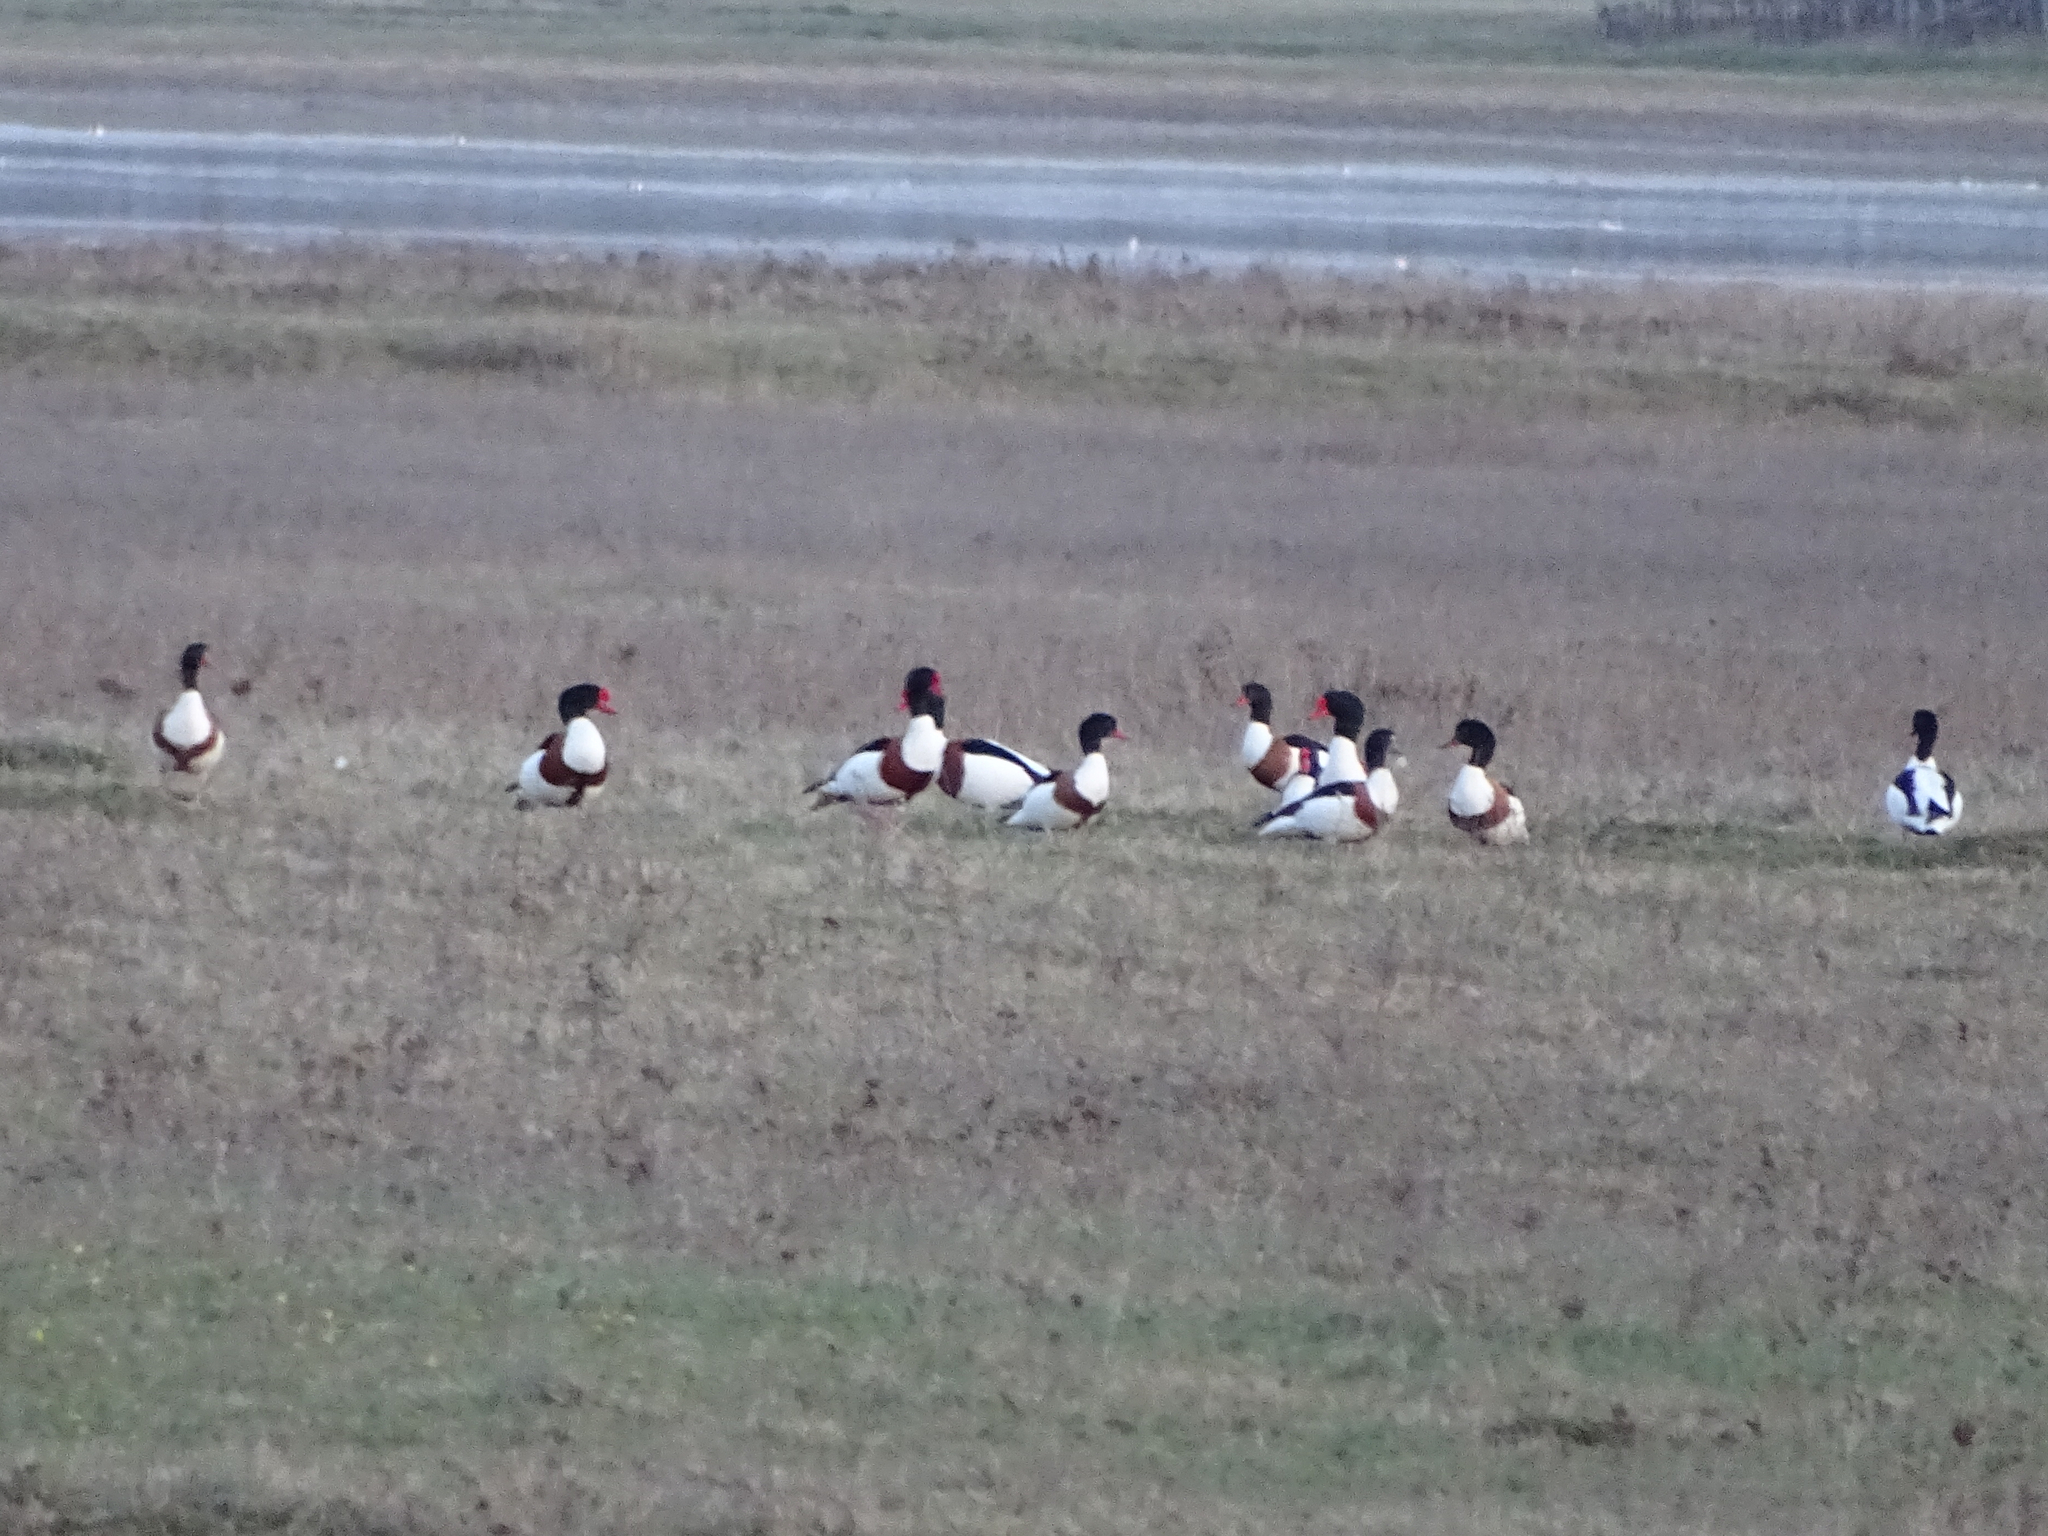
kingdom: Animalia
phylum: Chordata
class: Aves
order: Anseriformes
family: Anatidae
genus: Tadorna
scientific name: Tadorna tadorna
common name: Common shelduck
